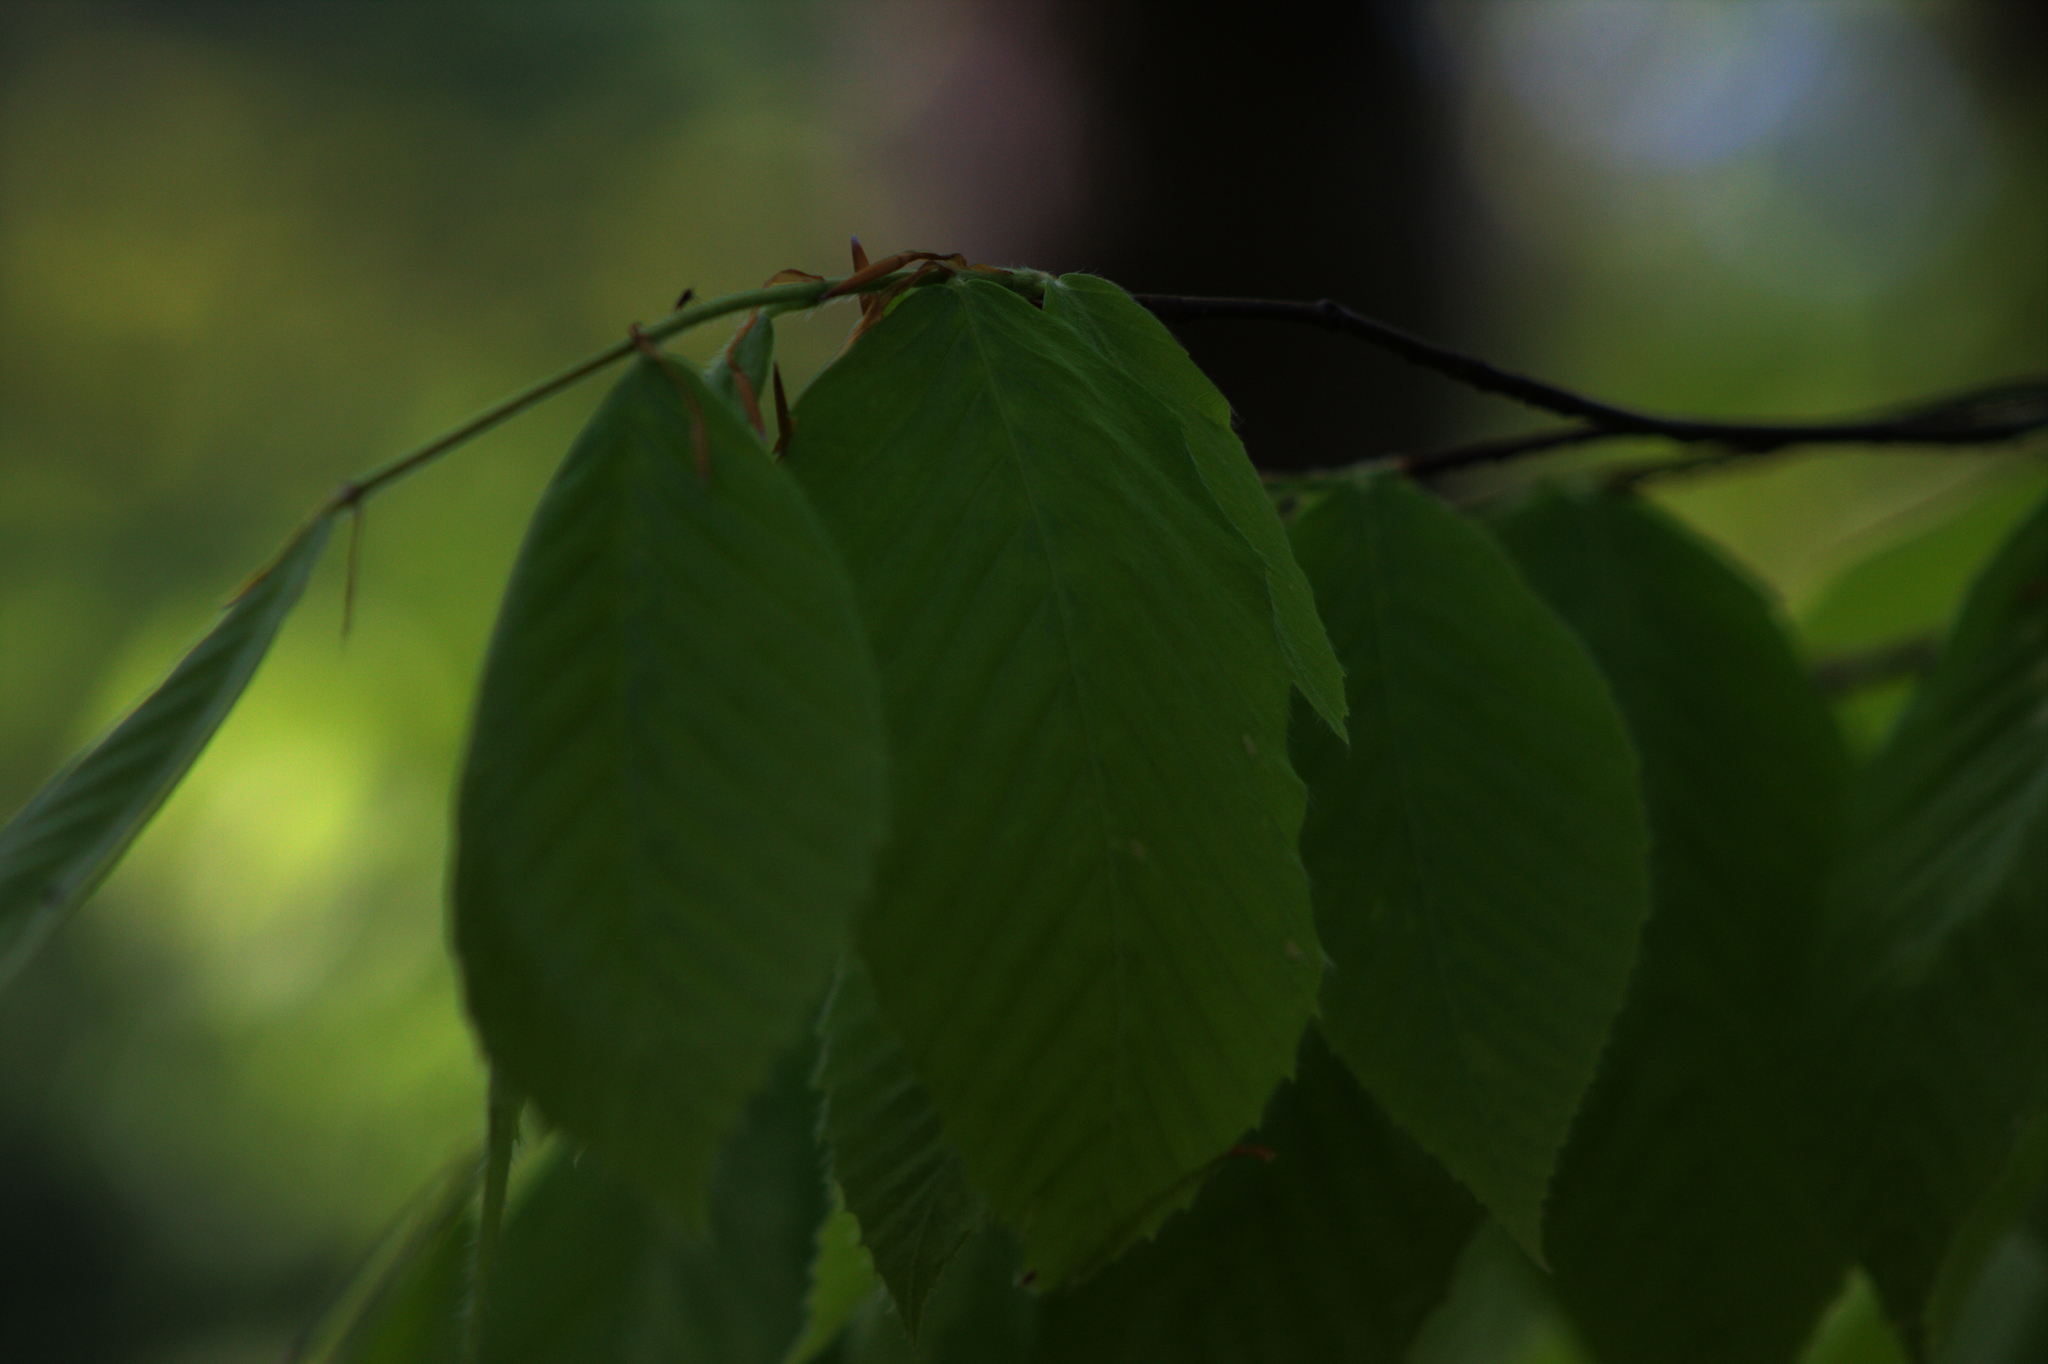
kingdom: Plantae
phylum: Tracheophyta
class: Magnoliopsida
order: Fagales
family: Fagaceae
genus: Fagus
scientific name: Fagus grandifolia
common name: American beech
